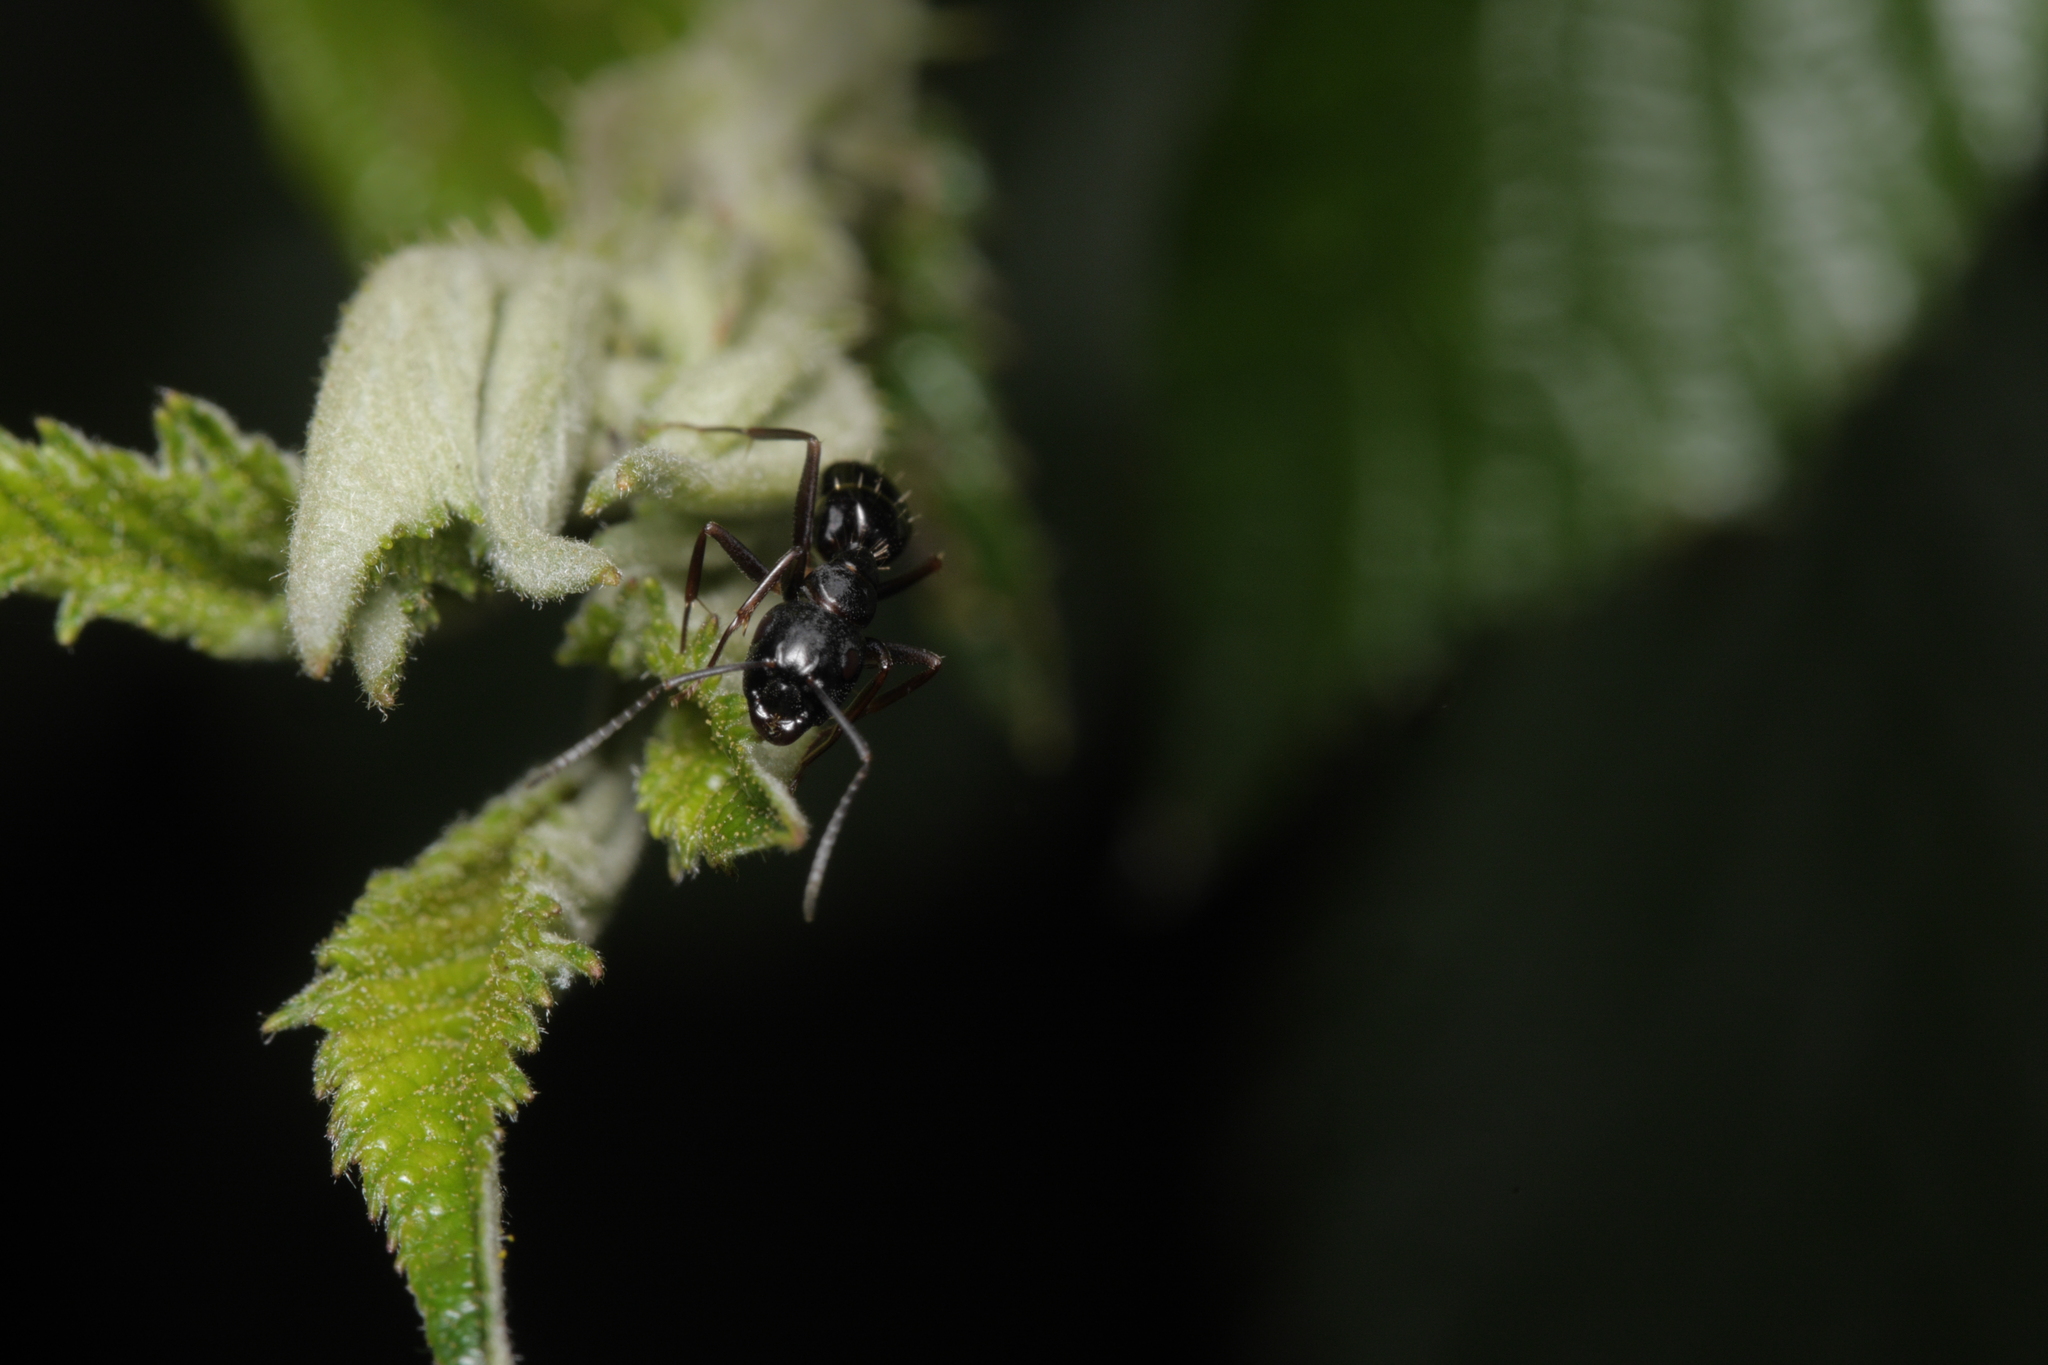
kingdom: Animalia
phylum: Arthropoda
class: Insecta
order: Hymenoptera
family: Formicidae
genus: Camponotus
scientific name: Camponotus fallax
